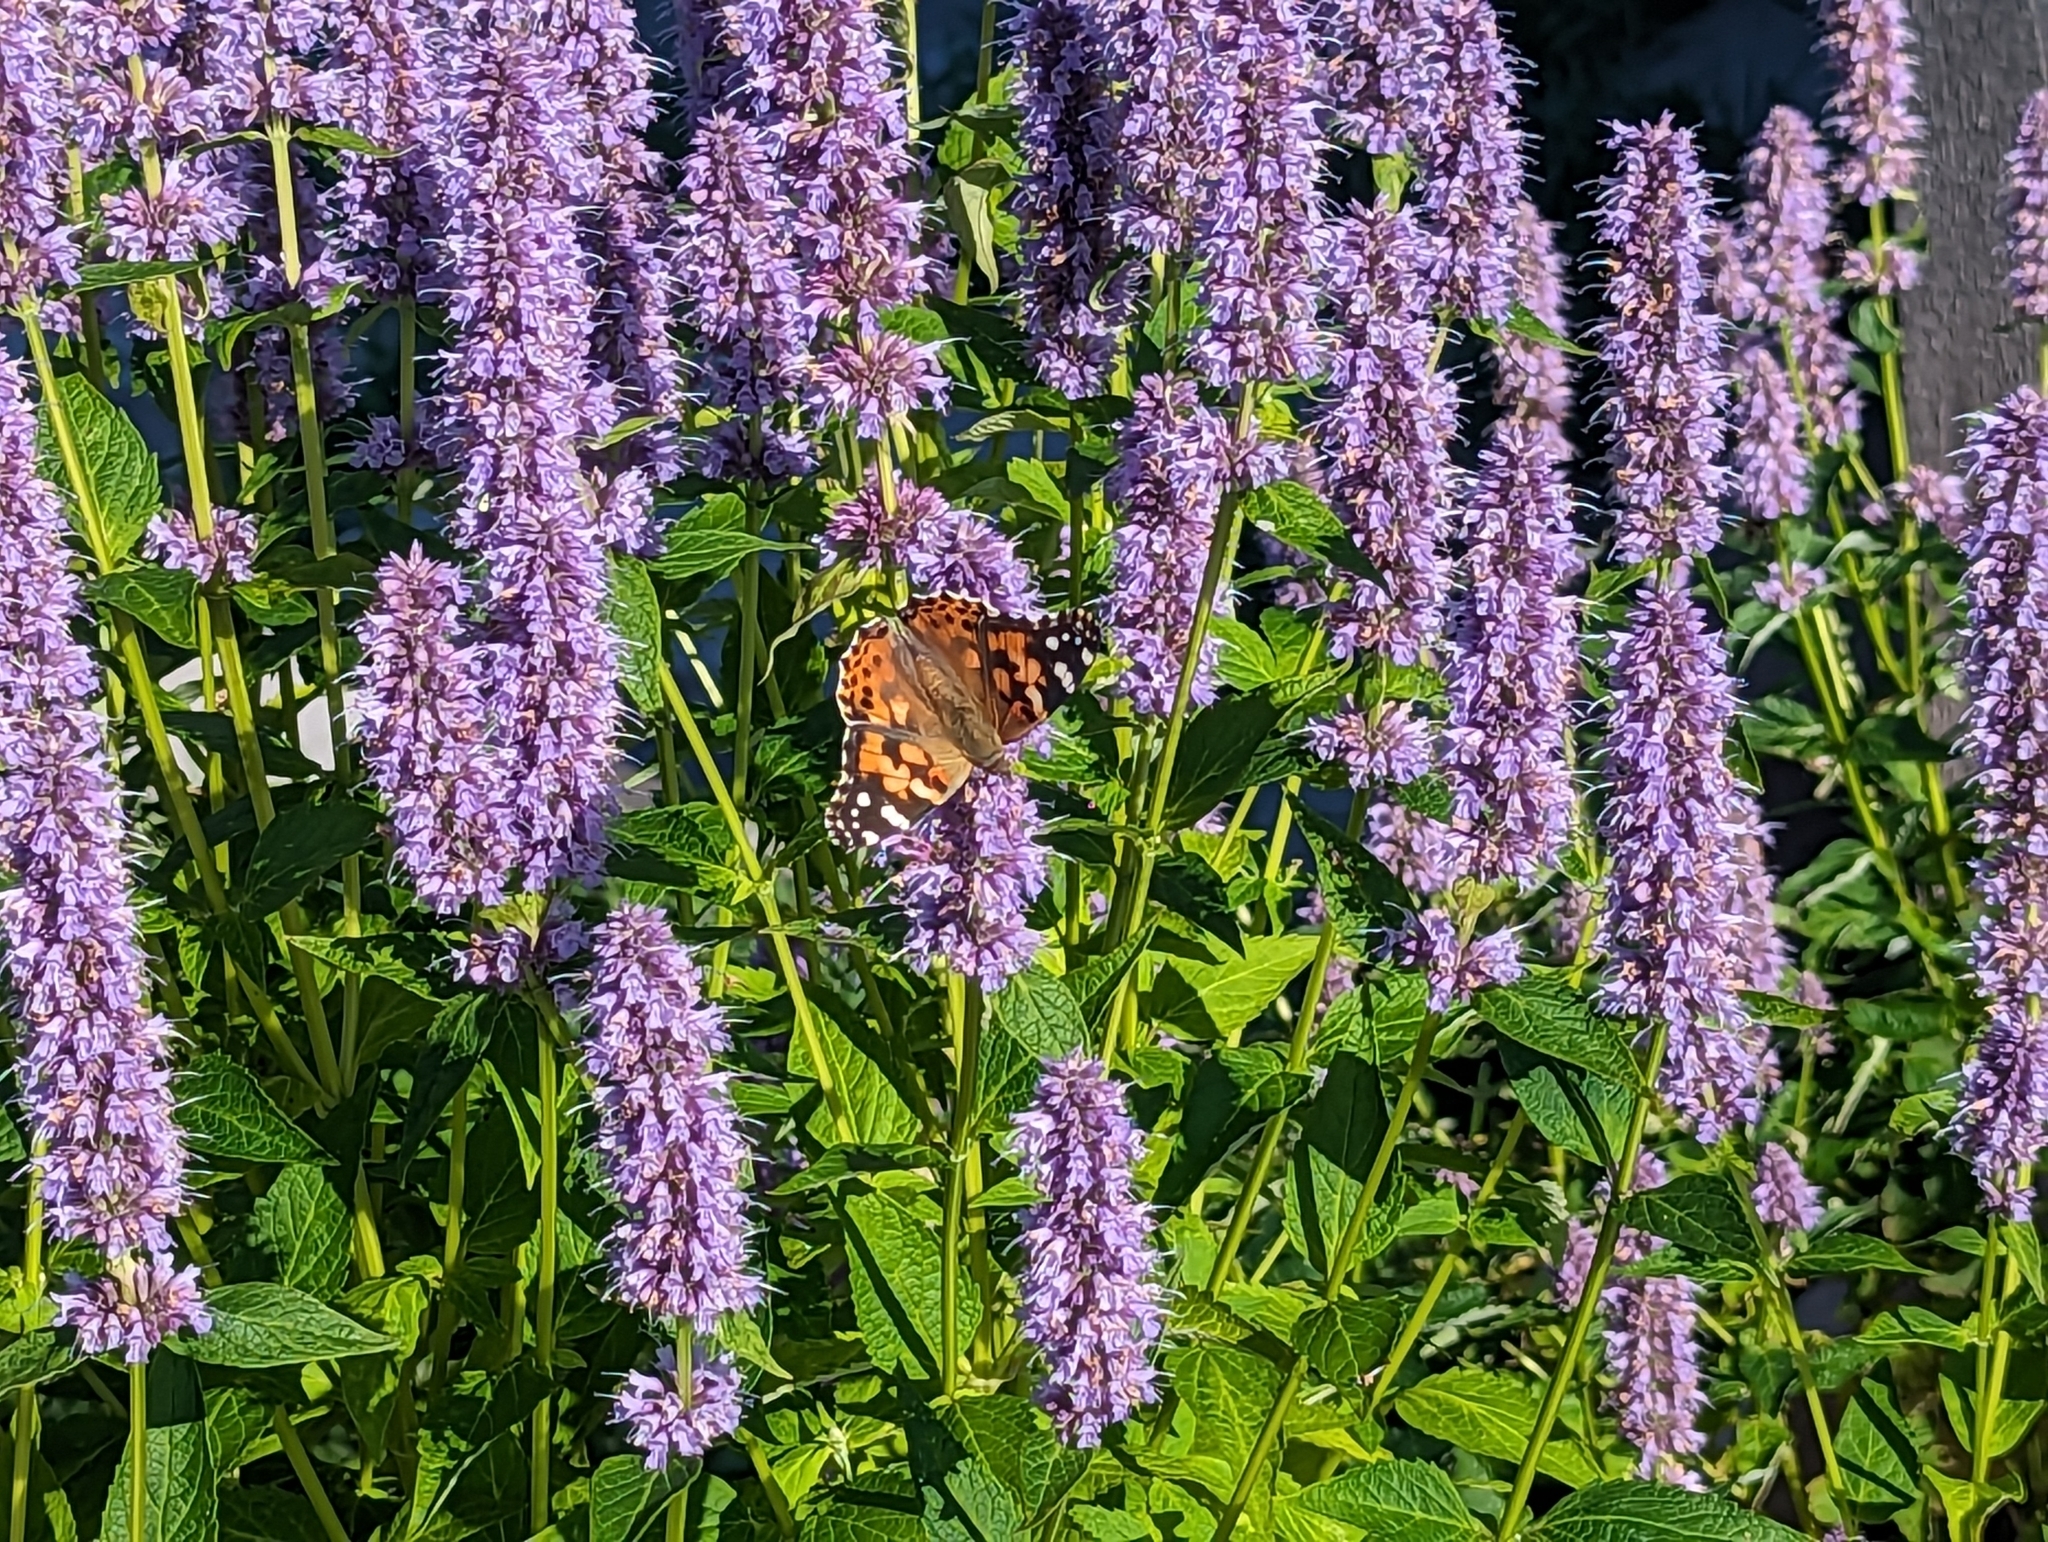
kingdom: Animalia
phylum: Arthropoda
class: Insecta
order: Lepidoptera
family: Nymphalidae
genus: Vanessa
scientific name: Vanessa cardui
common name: Painted lady
